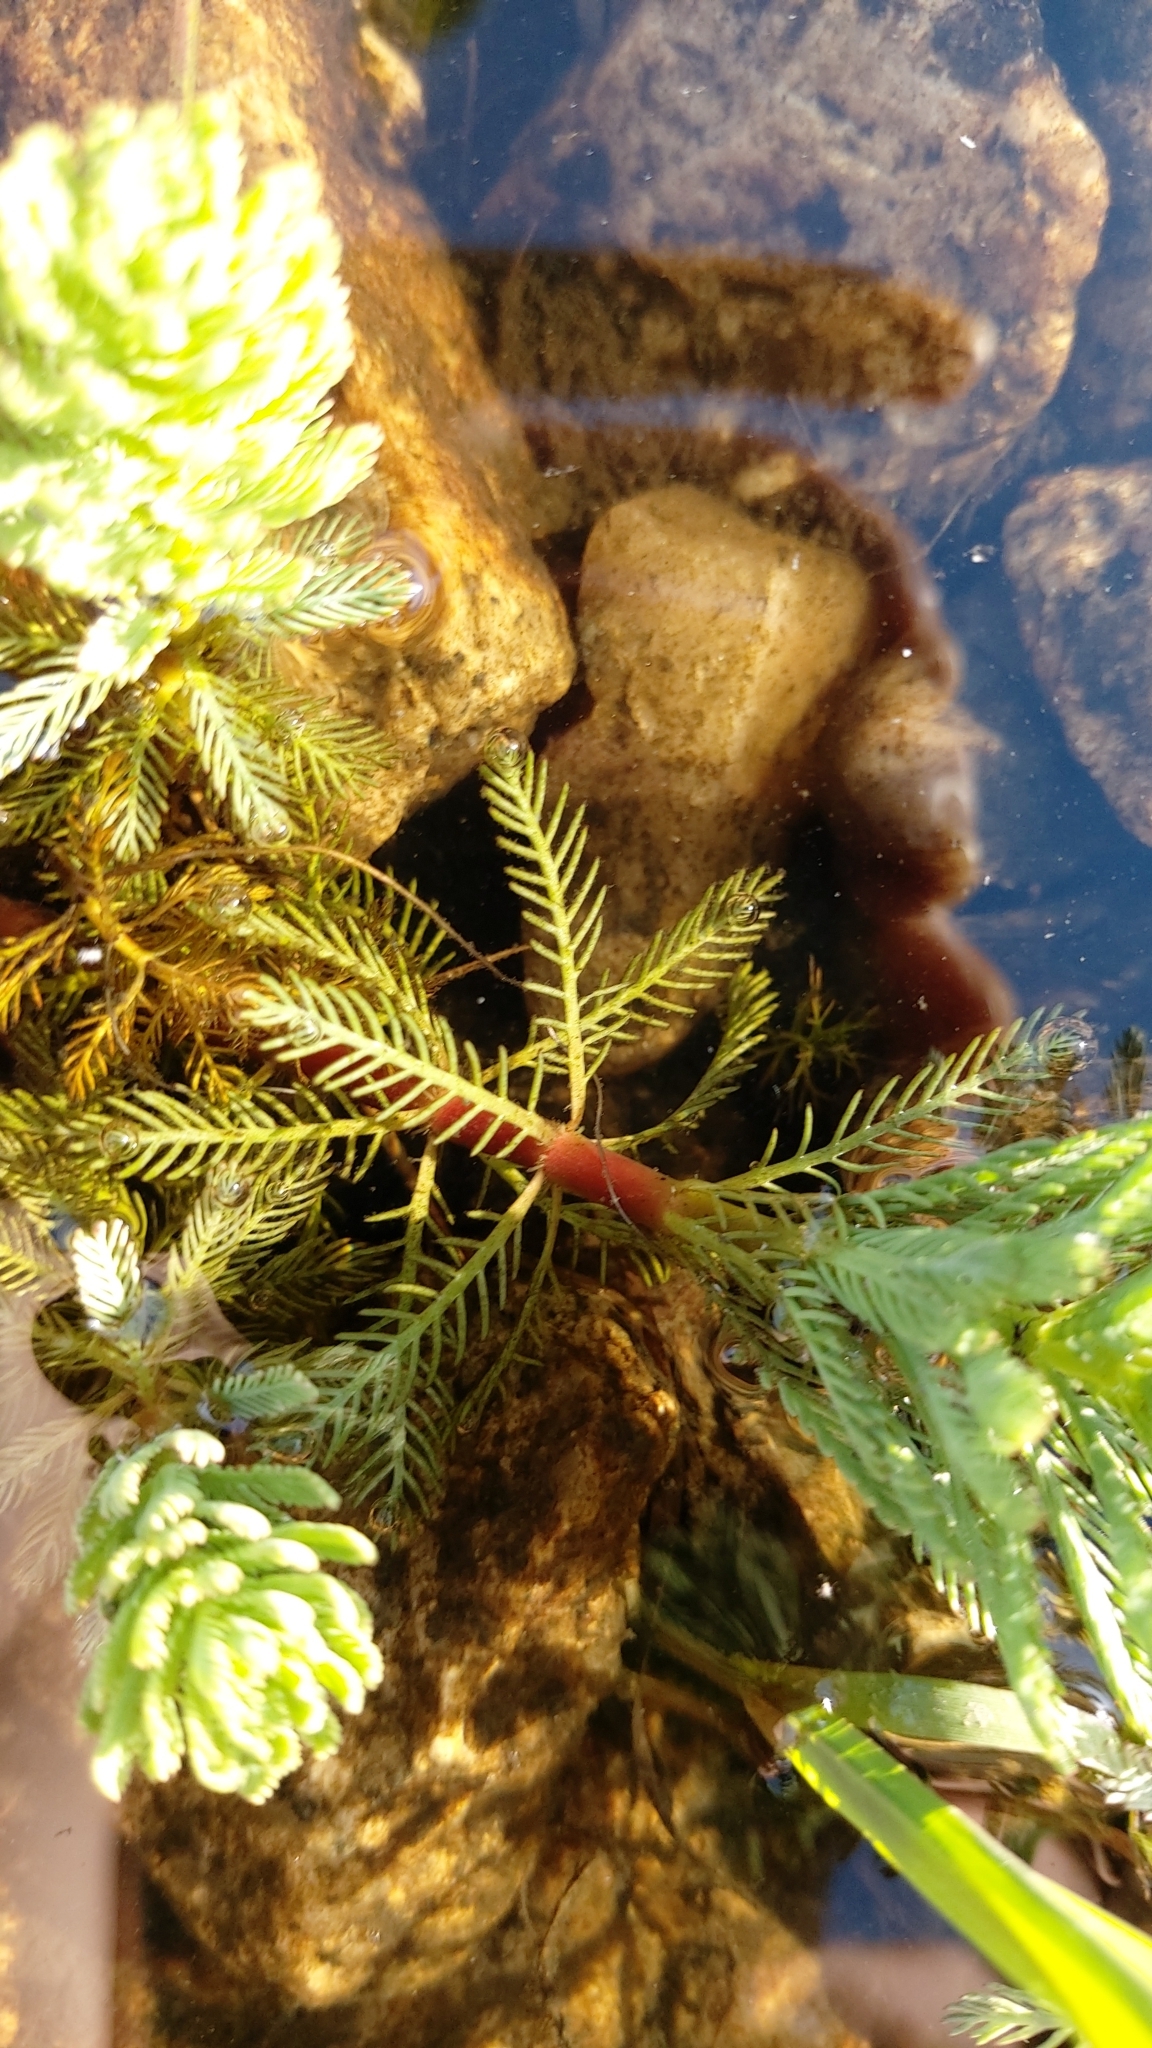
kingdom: Plantae
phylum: Tracheophyta
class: Magnoliopsida
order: Saxifragales
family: Haloragaceae
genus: Myriophyllum
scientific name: Myriophyllum aquaticum
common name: Parrot's feather
